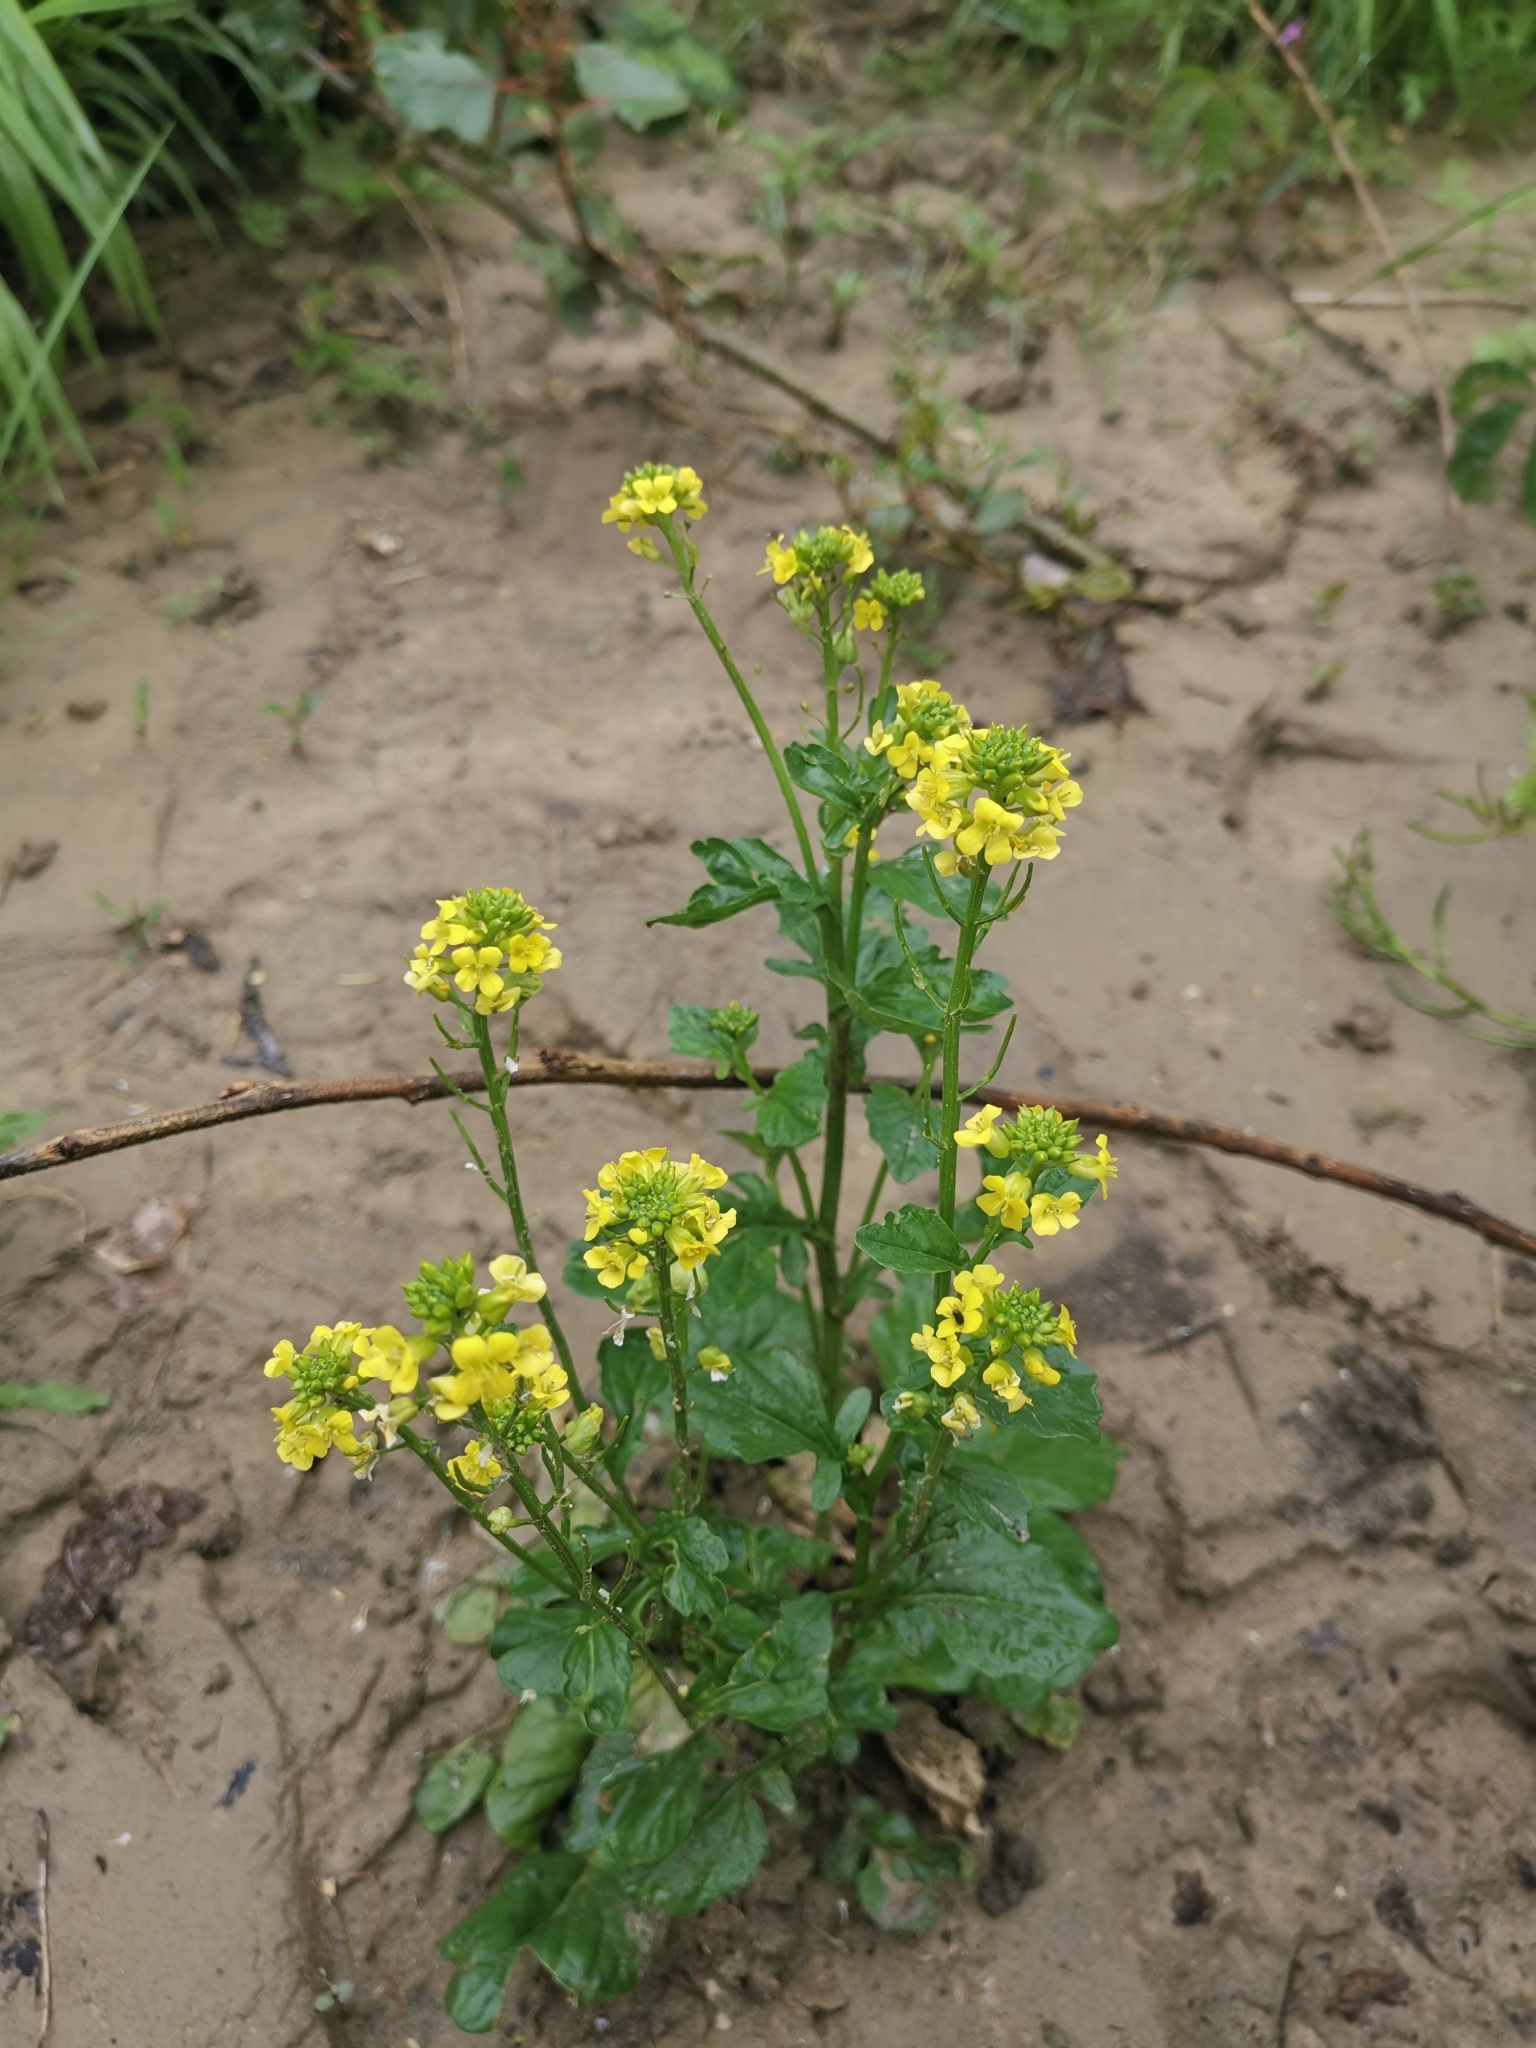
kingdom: Plantae
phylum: Tracheophyta
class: Magnoliopsida
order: Brassicales
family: Brassicaceae
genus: Barbarea
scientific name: Barbarea vulgaris
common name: Cressy-greens
